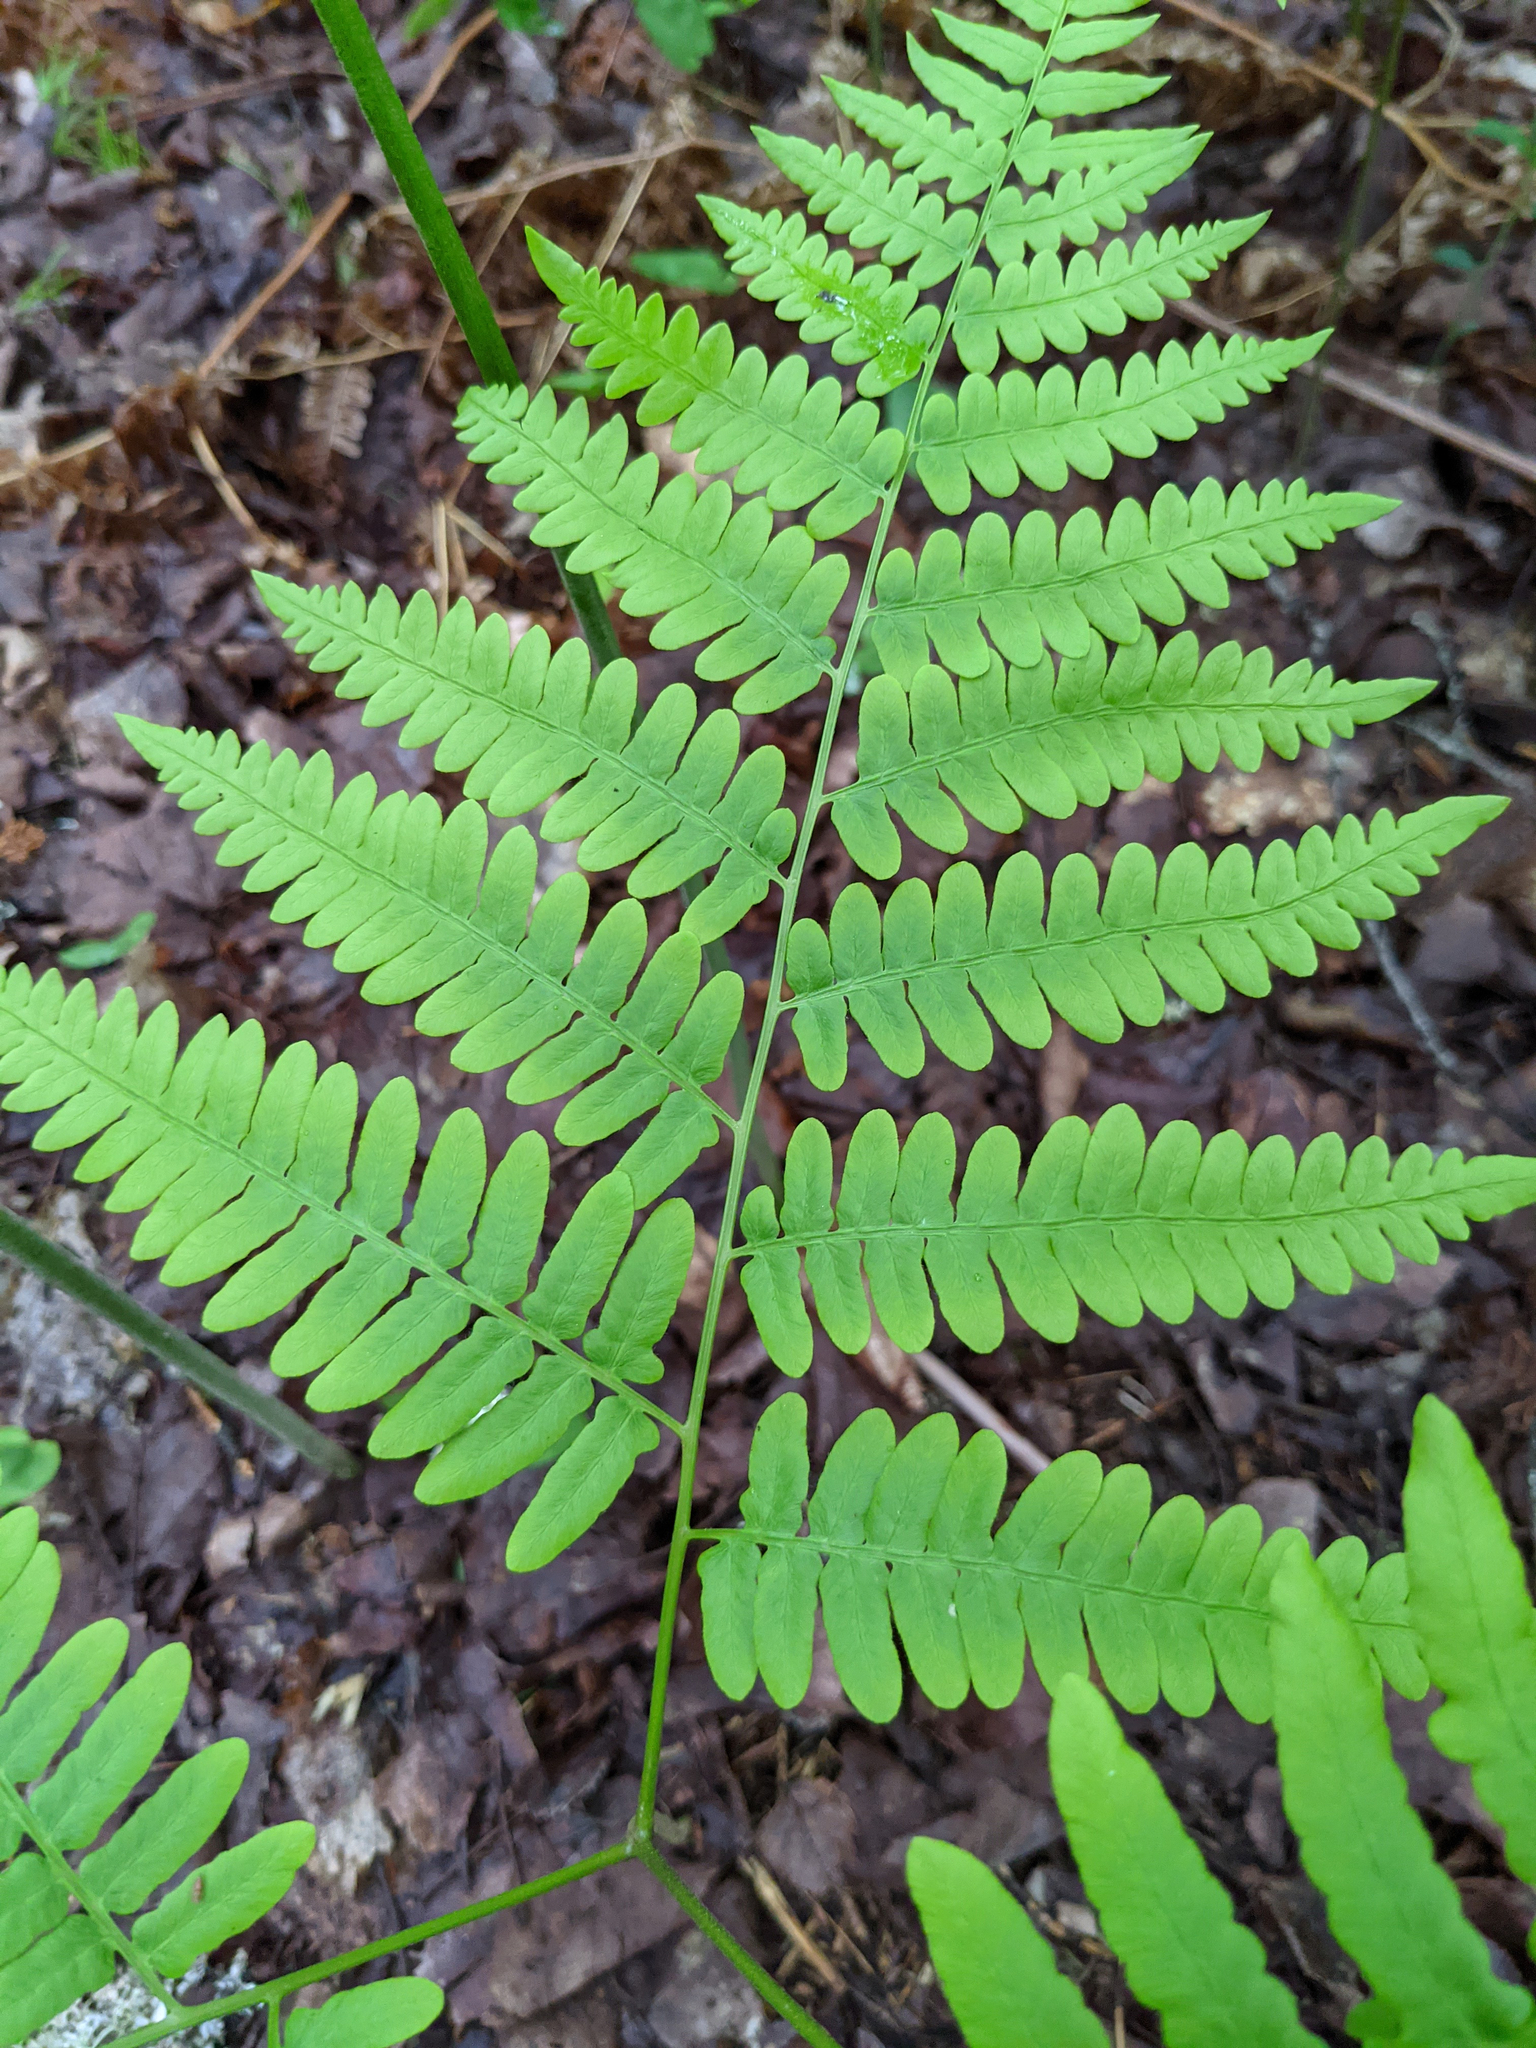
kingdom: Plantae
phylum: Tracheophyta
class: Polypodiopsida
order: Polypodiales
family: Dennstaedtiaceae
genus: Pteridium
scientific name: Pteridium aquilinum
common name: Bracken
